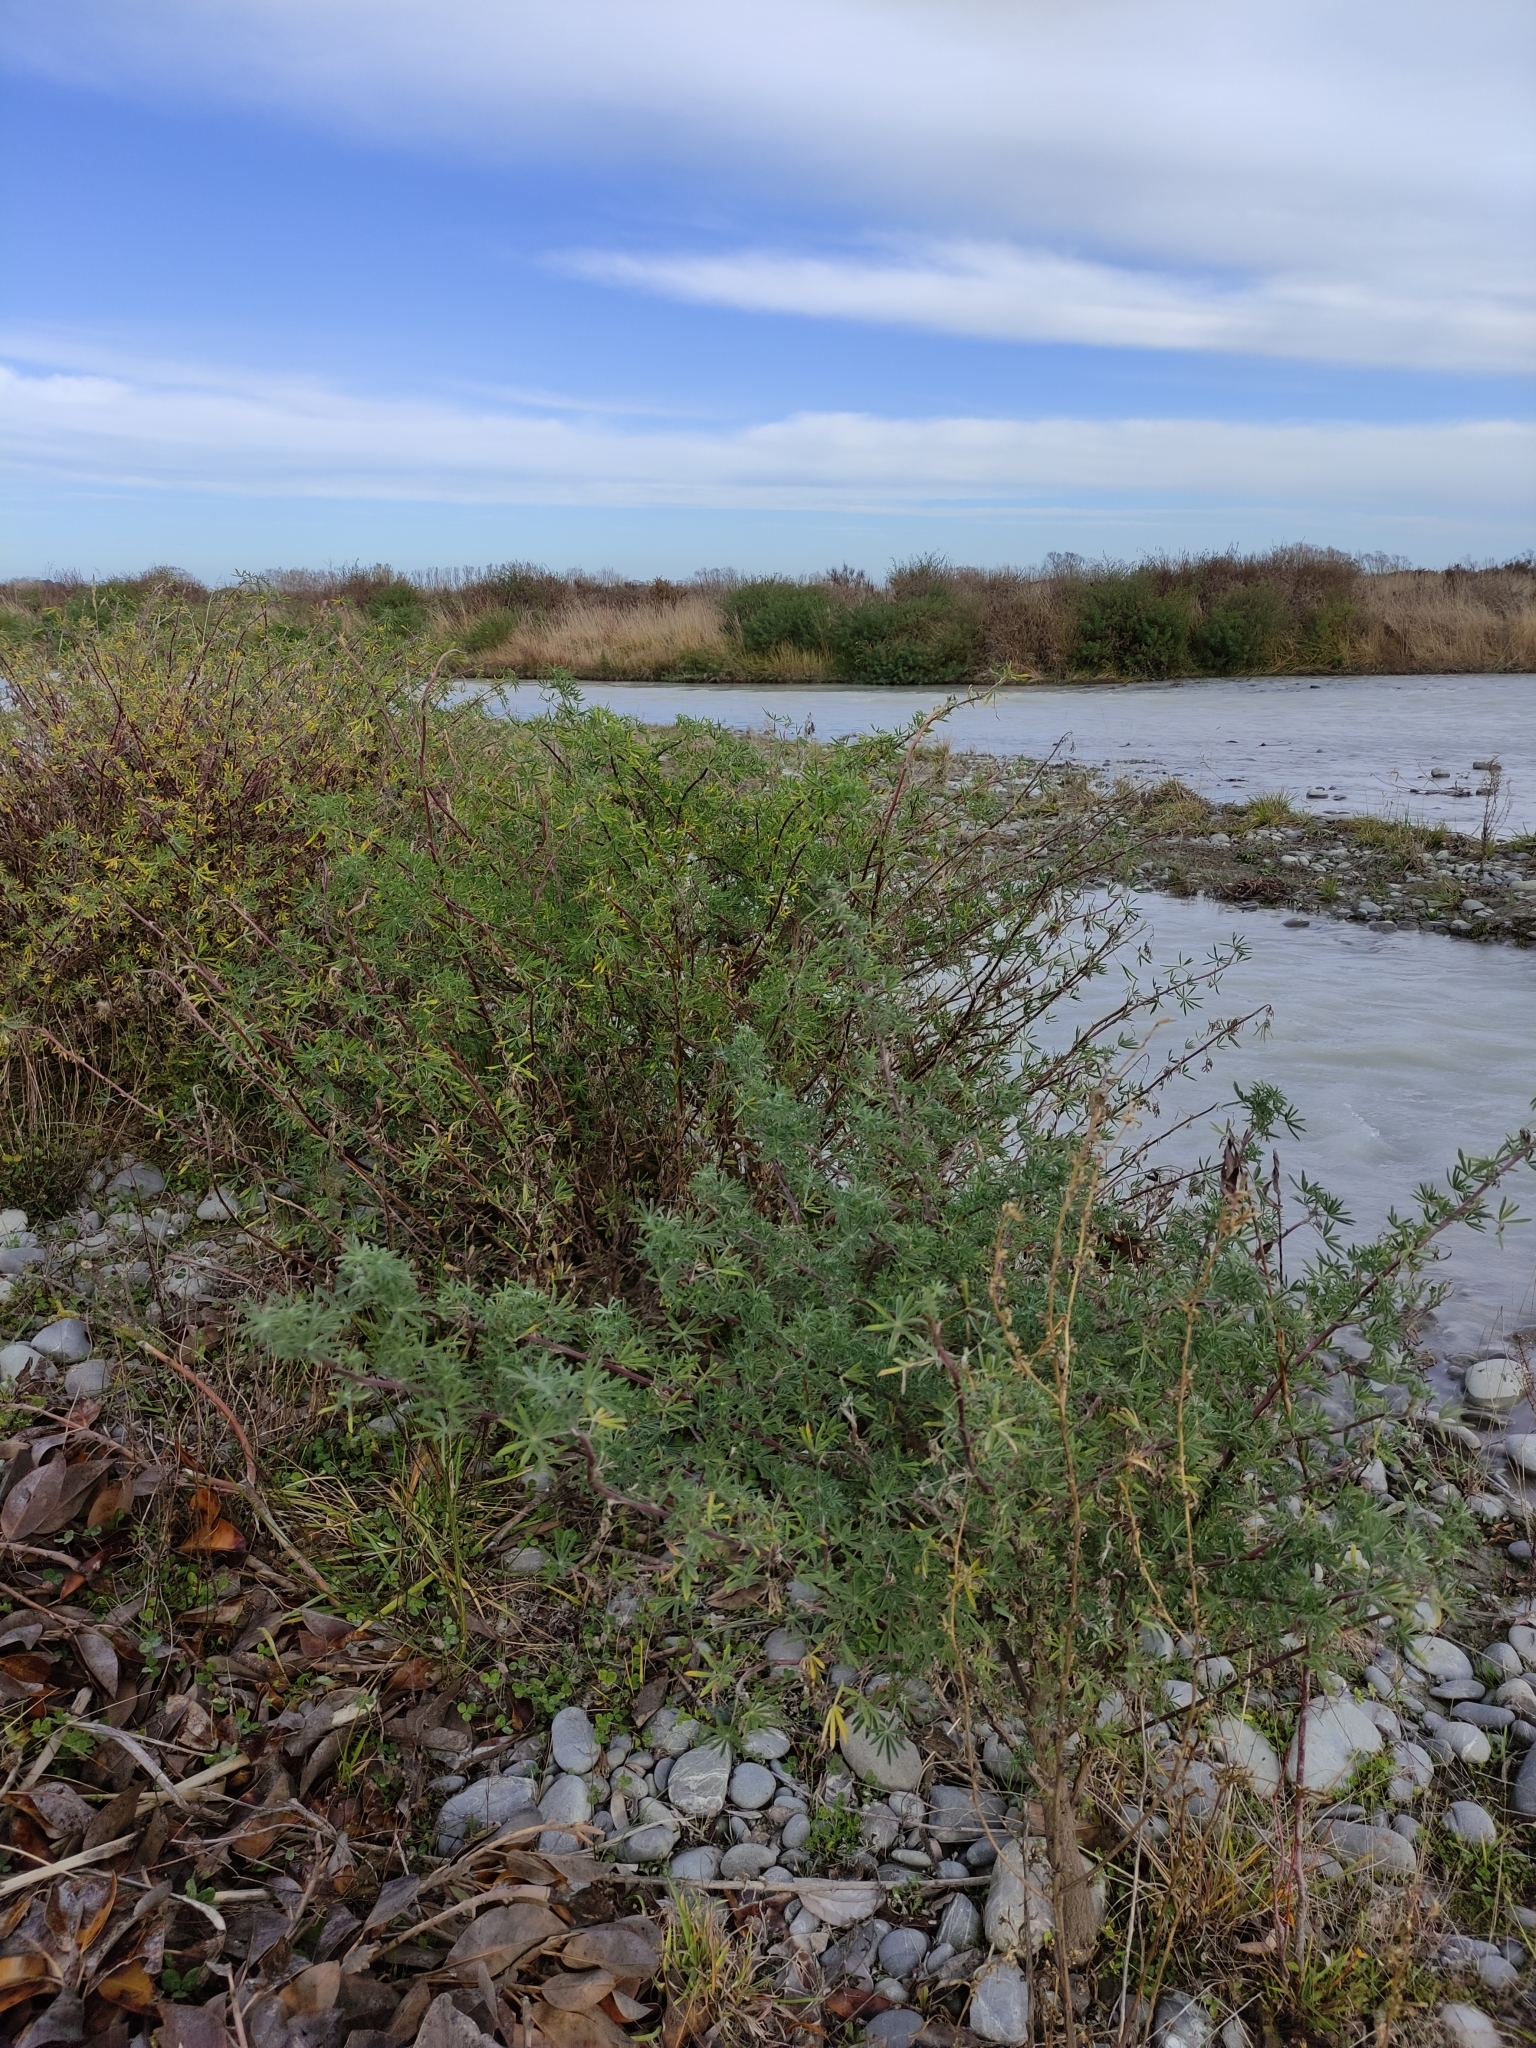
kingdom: Plantae
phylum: Tracheophyta
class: Magnoliopsida
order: Fabales
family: Fabaceae
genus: Lupinus
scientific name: Lupinus arboreus
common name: Yellow bush lupine
